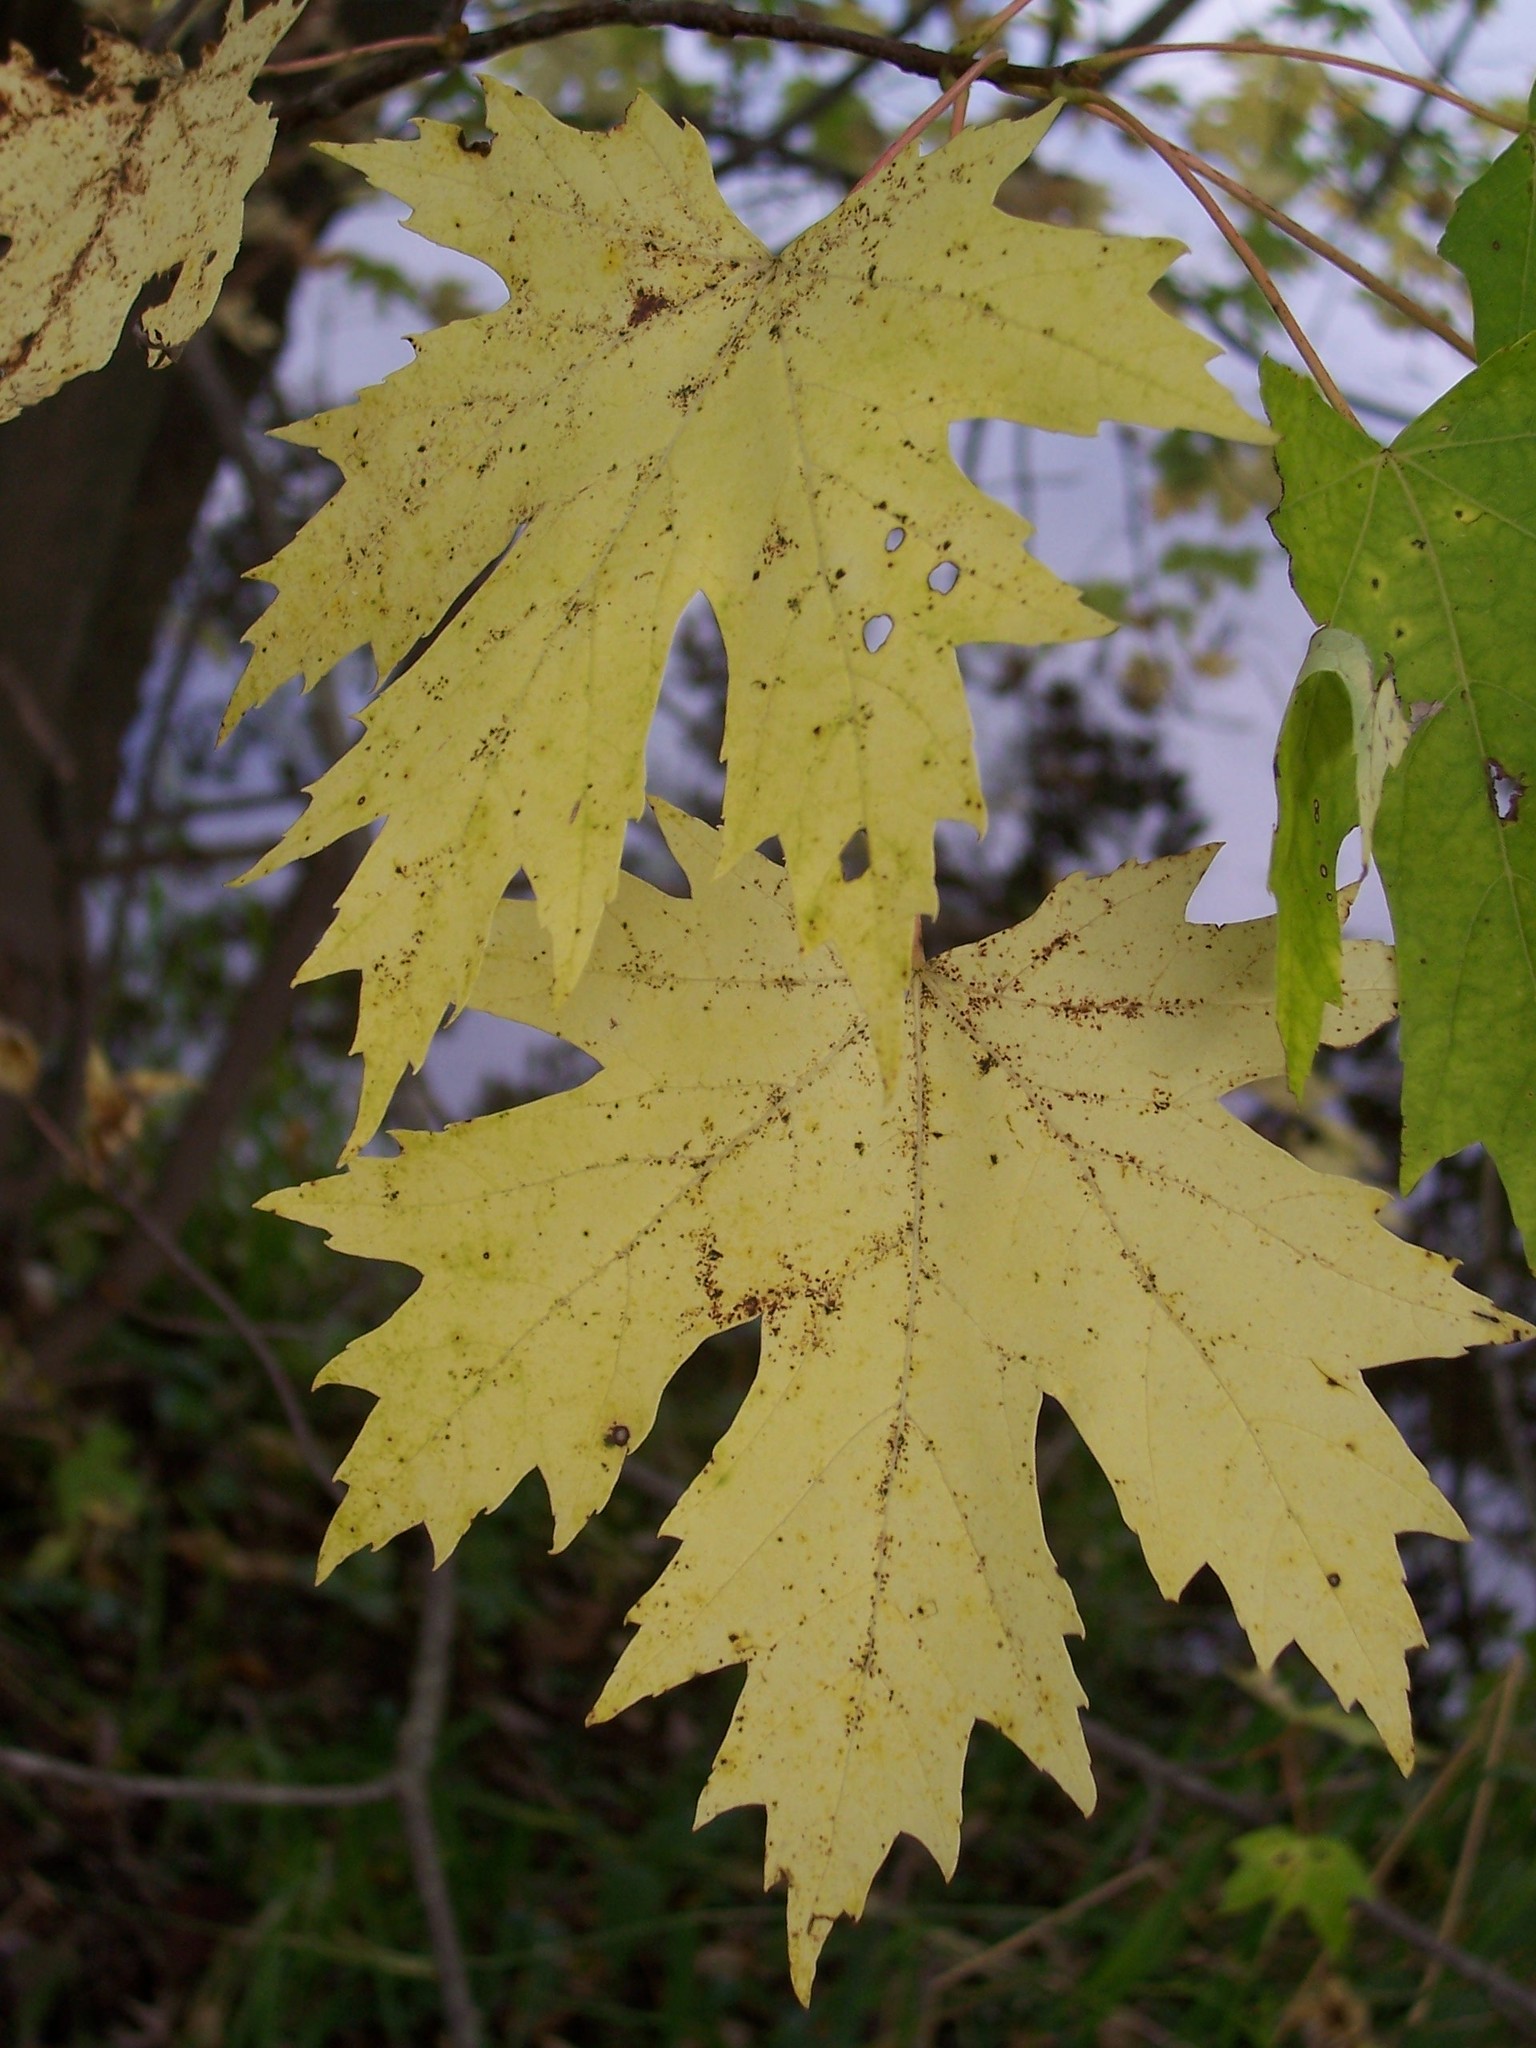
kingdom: Plantae
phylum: Tracheophyta
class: Magnoliopsida
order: Sapindales
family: Sapindaceae
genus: Acer
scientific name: Acer saccharinum
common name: Silver maple
